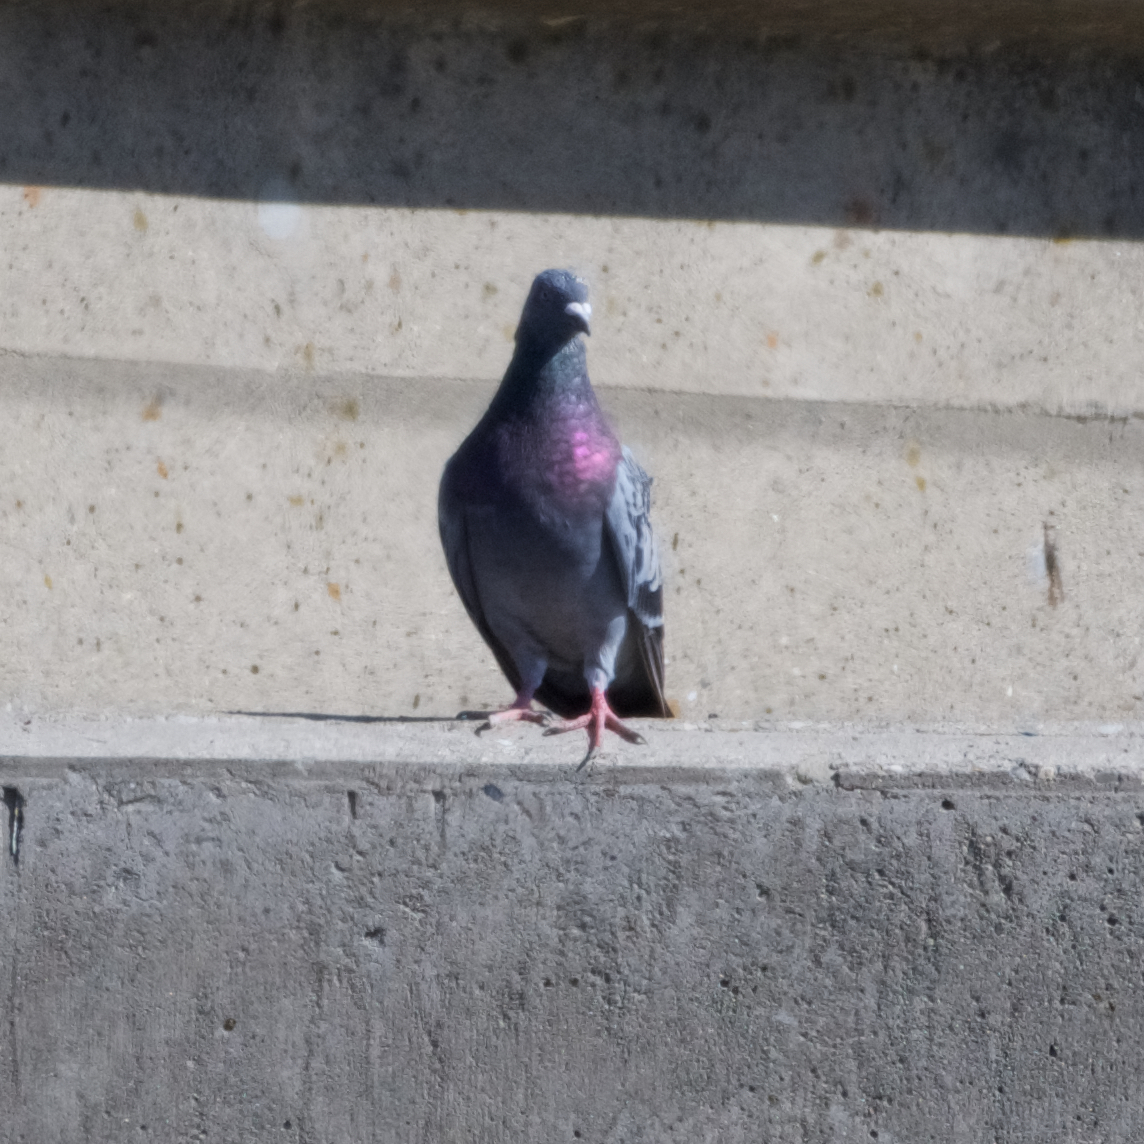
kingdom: Animalia
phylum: Chordata
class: Aves
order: Columbiformes
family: Columbidae
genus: Columba
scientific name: Columba livia
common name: Rock pigeon
